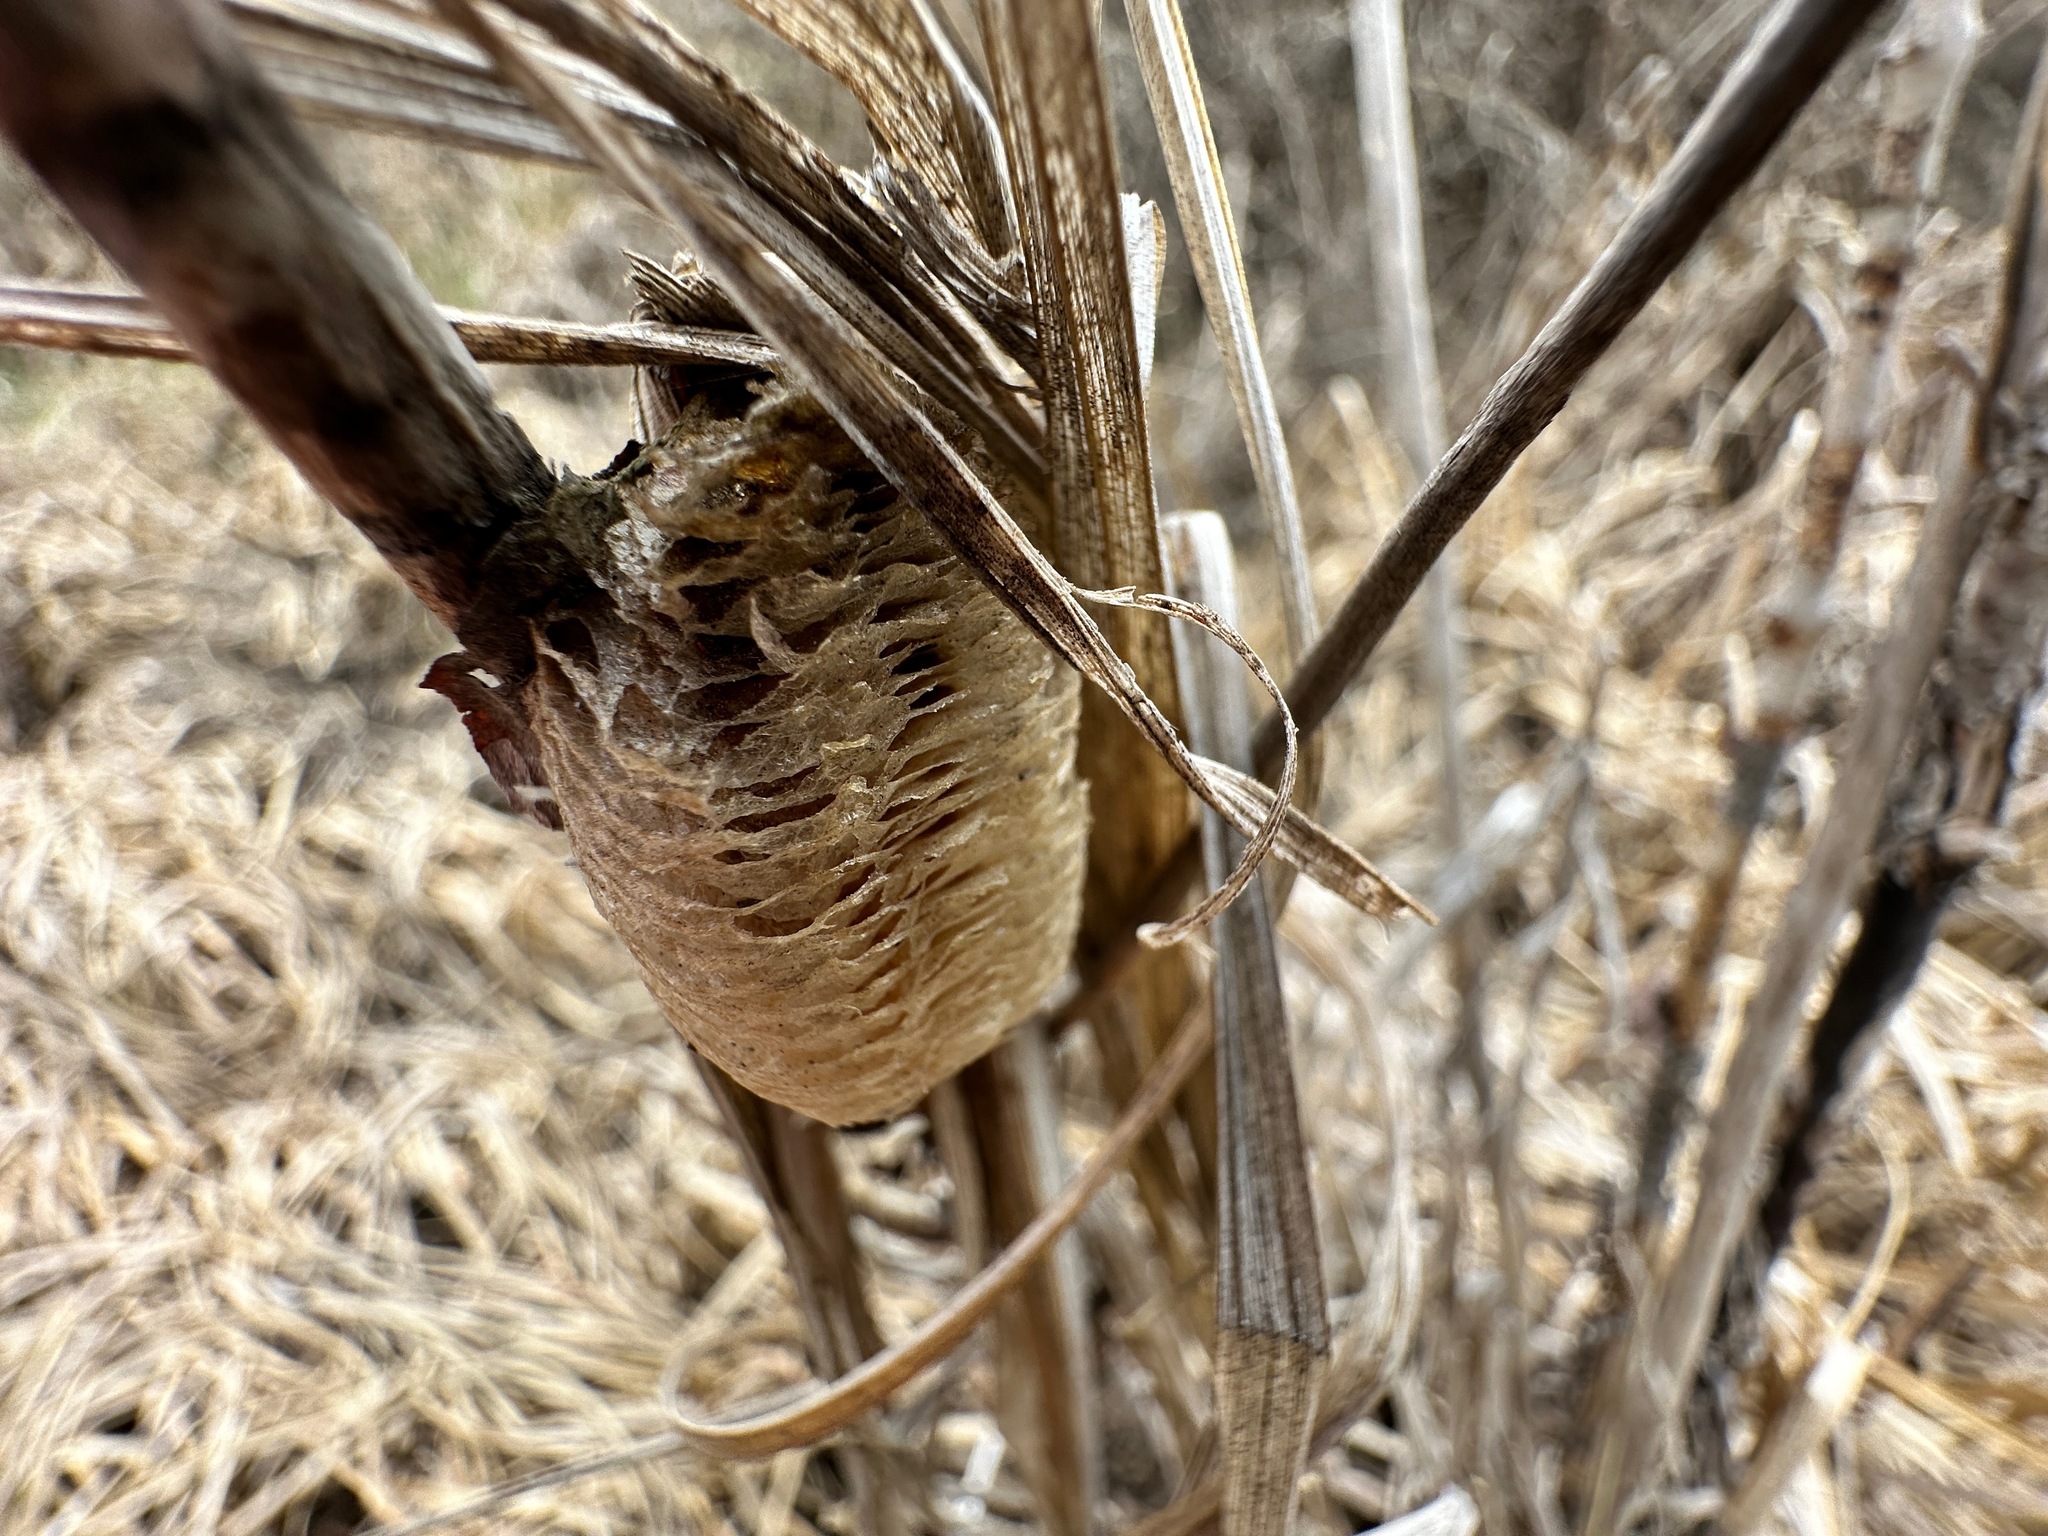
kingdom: Animalia
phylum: Arthropoda
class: Insecta
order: Mantodea
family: Mantidae
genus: Mantis
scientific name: Mantis religiosa
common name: Praying mantis
